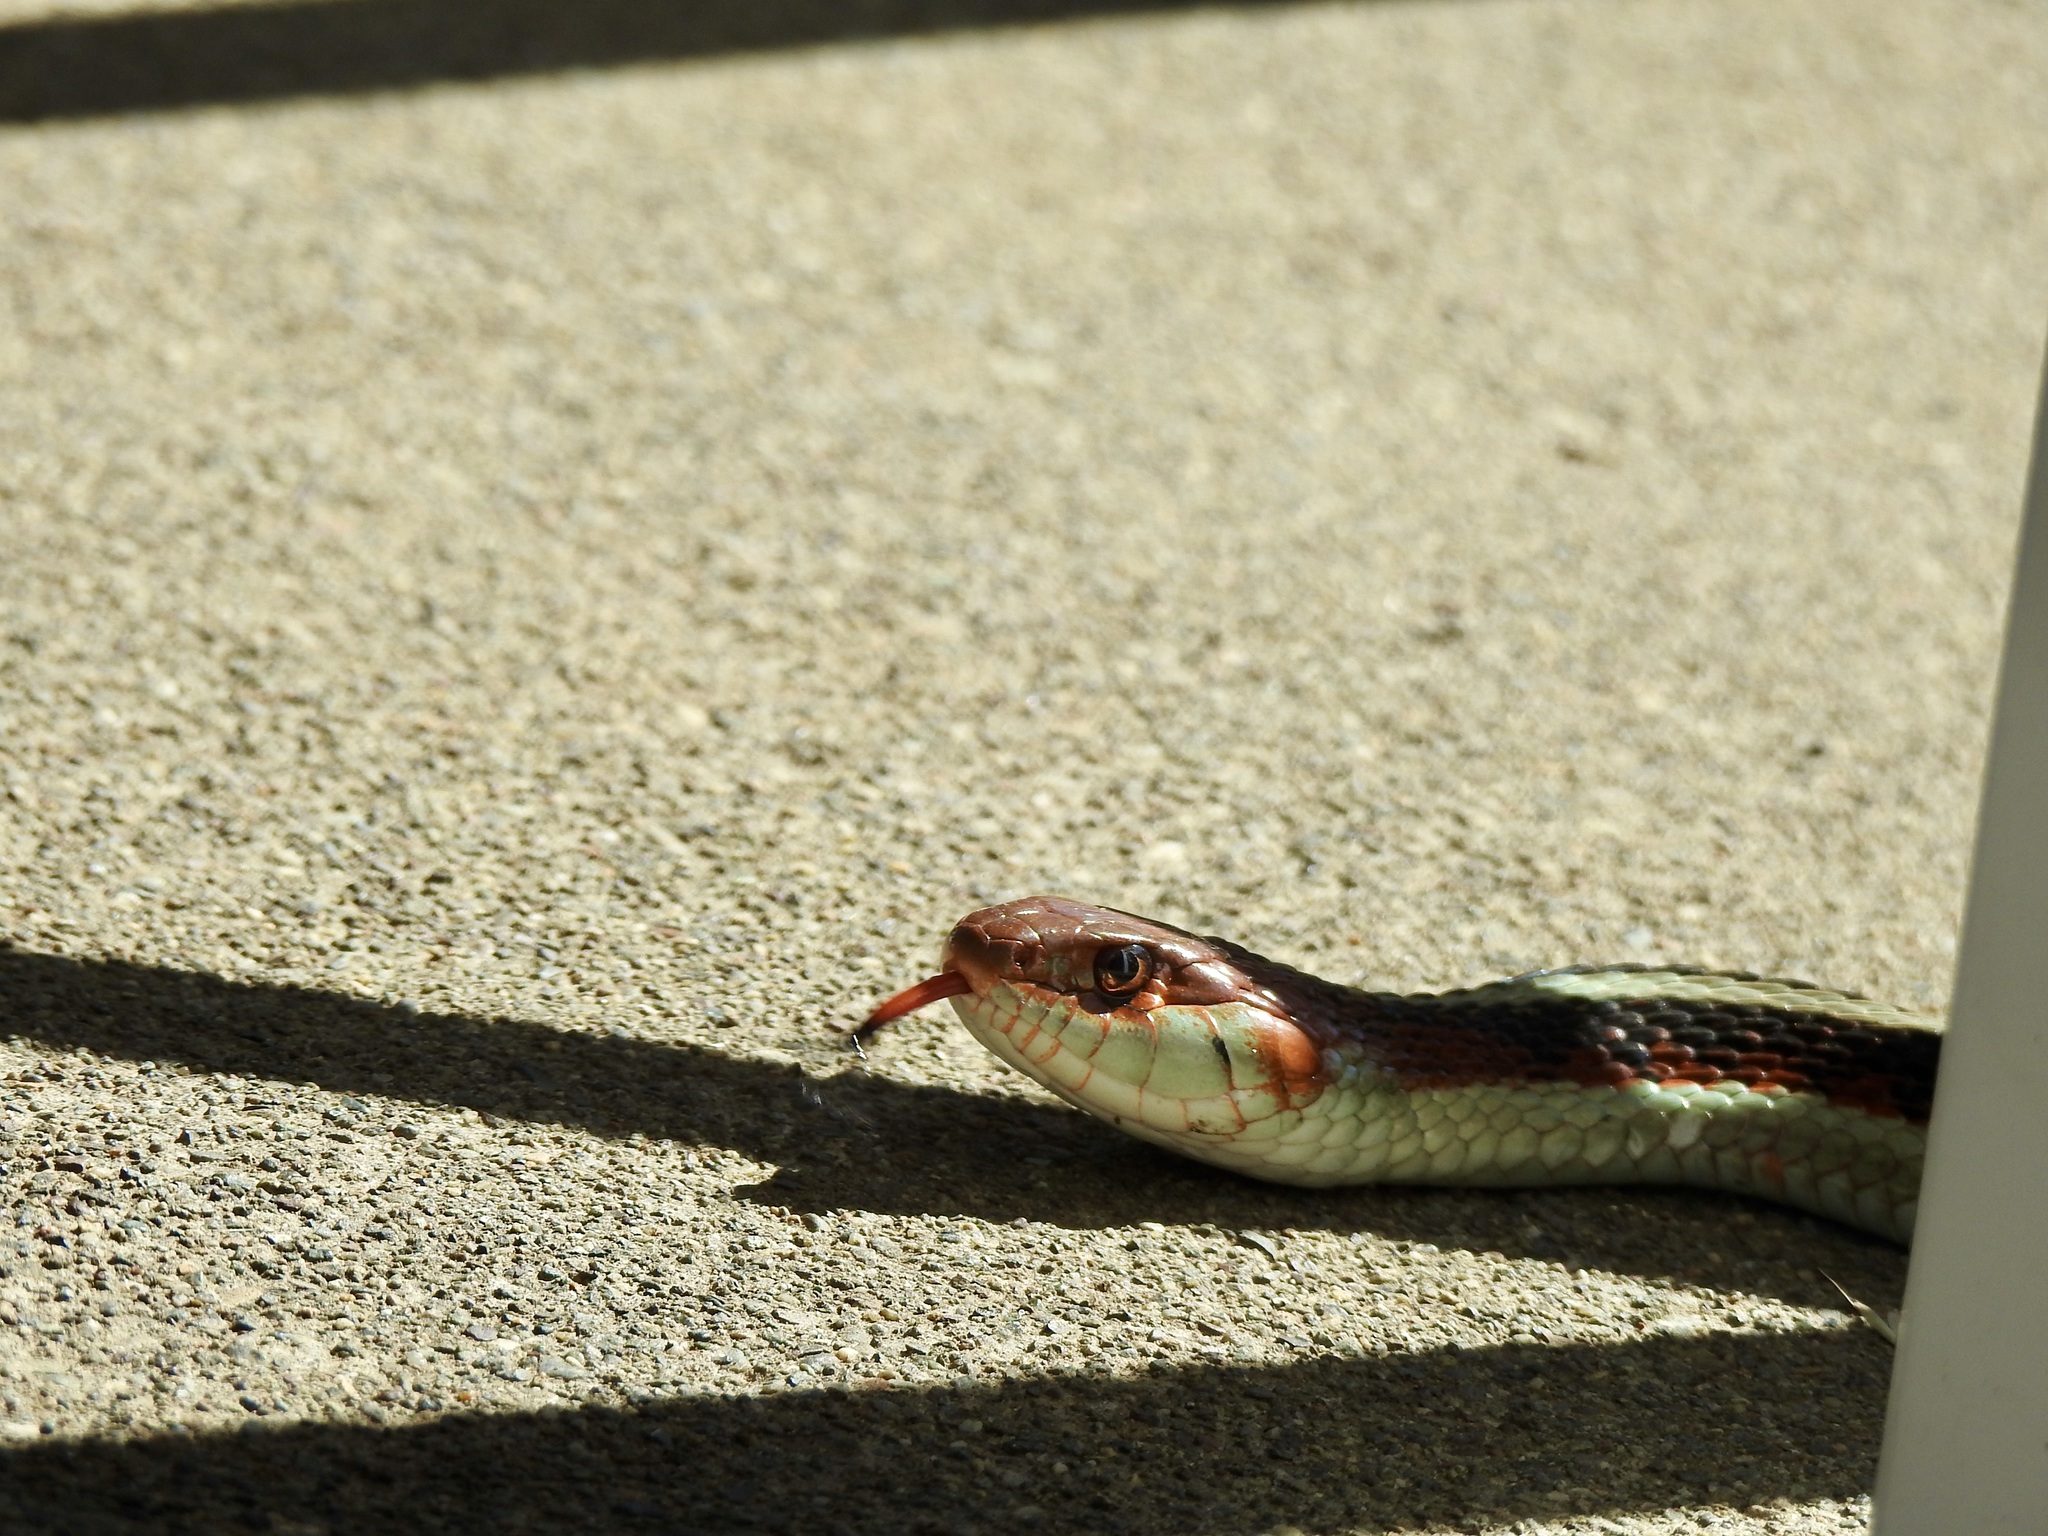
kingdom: Animalia
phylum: Chordata
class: Squamata
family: Colubridae
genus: Thamnophis
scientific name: Thamnophis sirtalis
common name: Common garter snake
